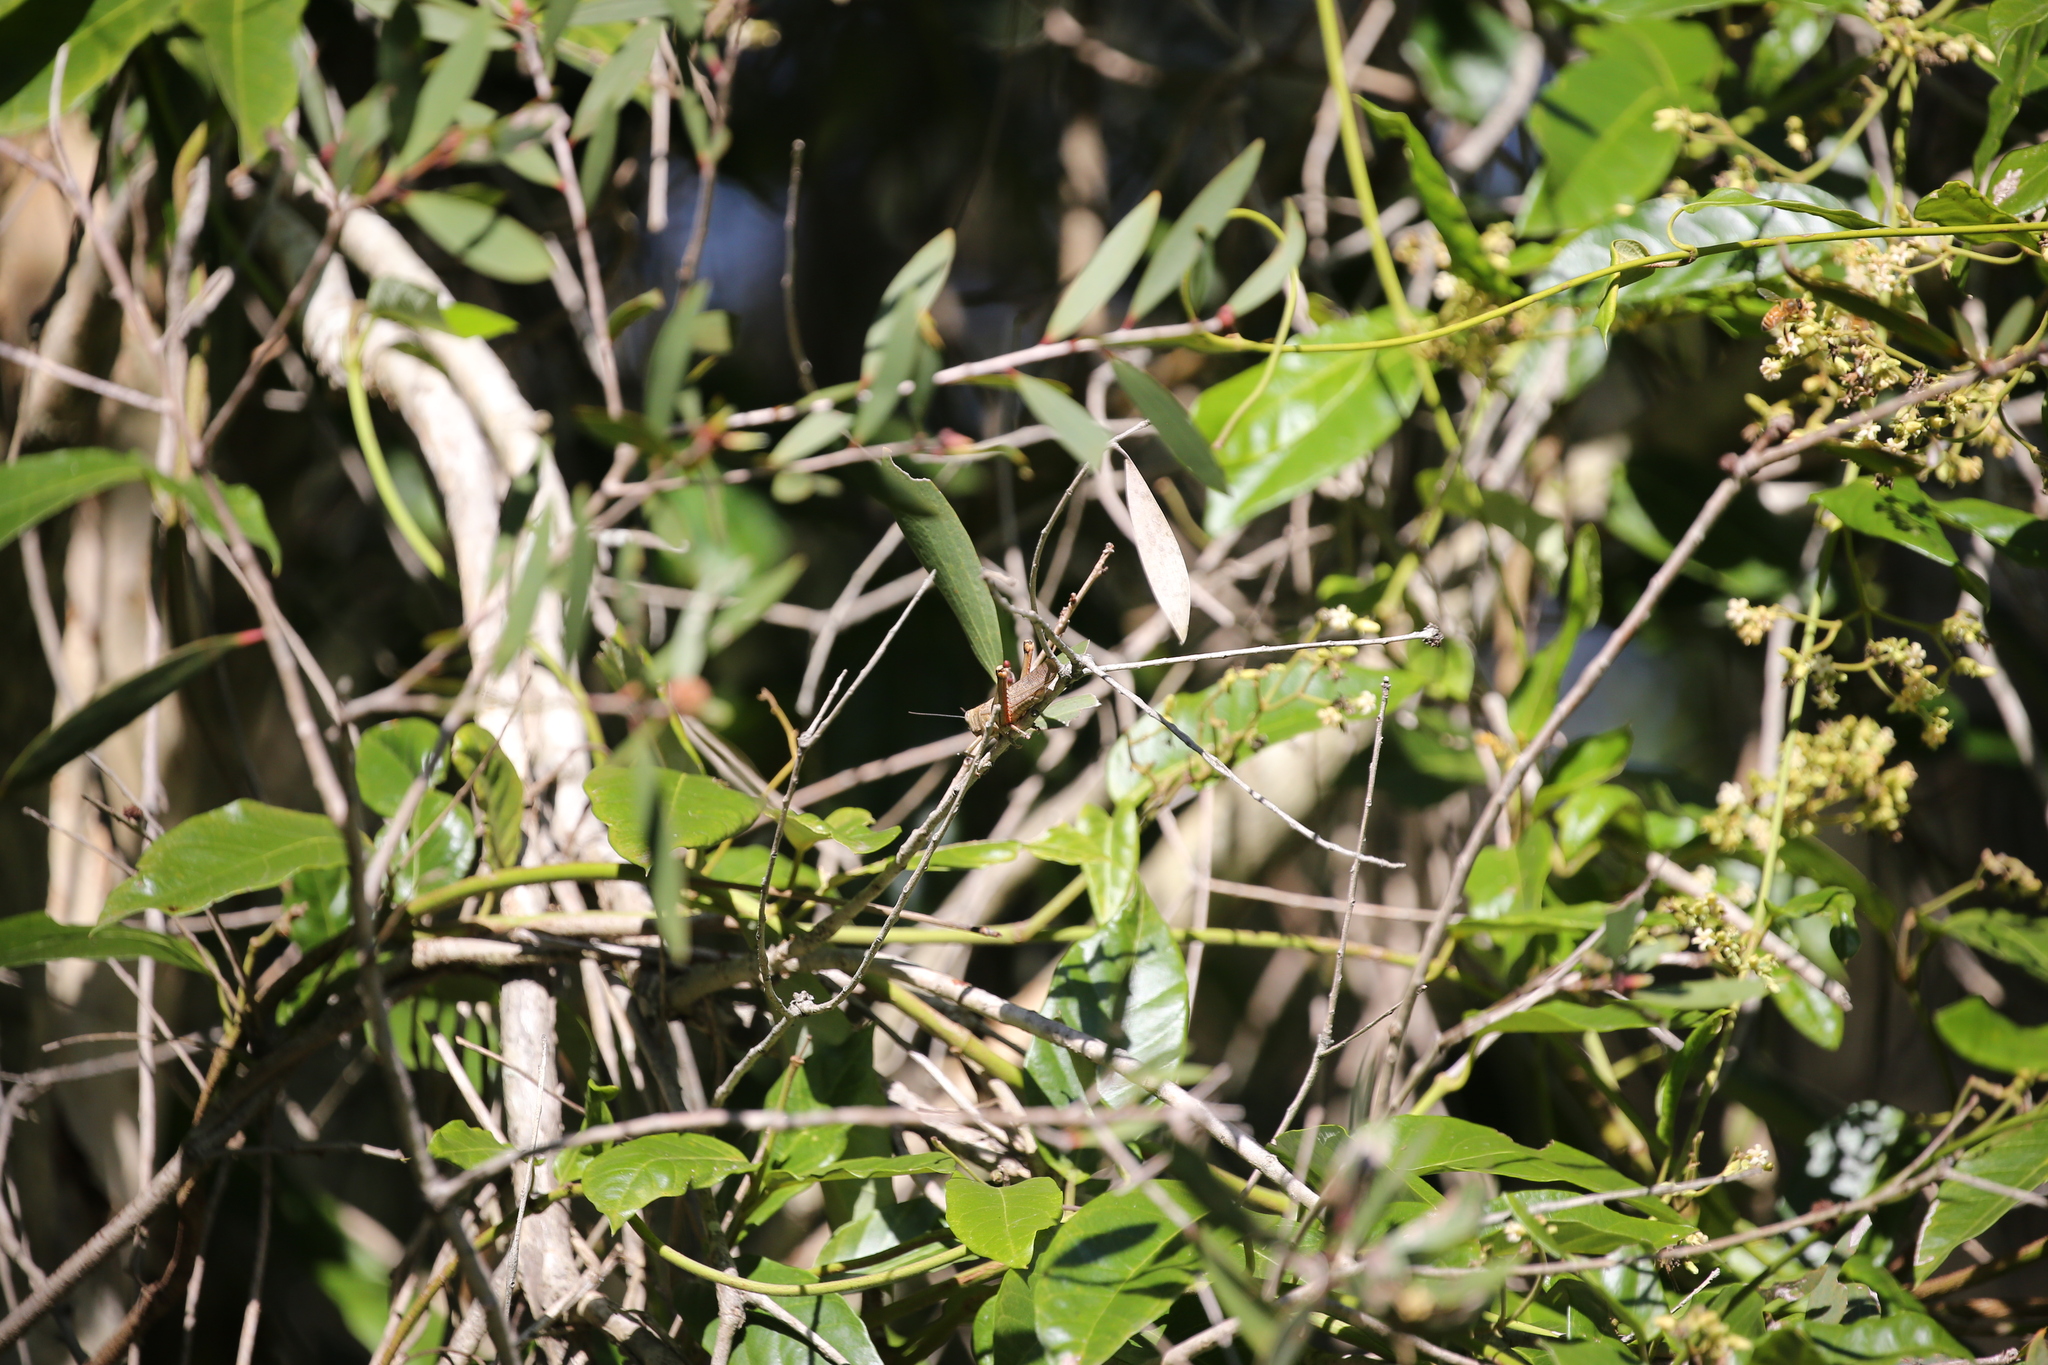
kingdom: Animalia
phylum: Arthropoda
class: Insecta
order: Orthoptera
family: Acrididae
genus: Valanga
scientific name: Valanga irregularis
